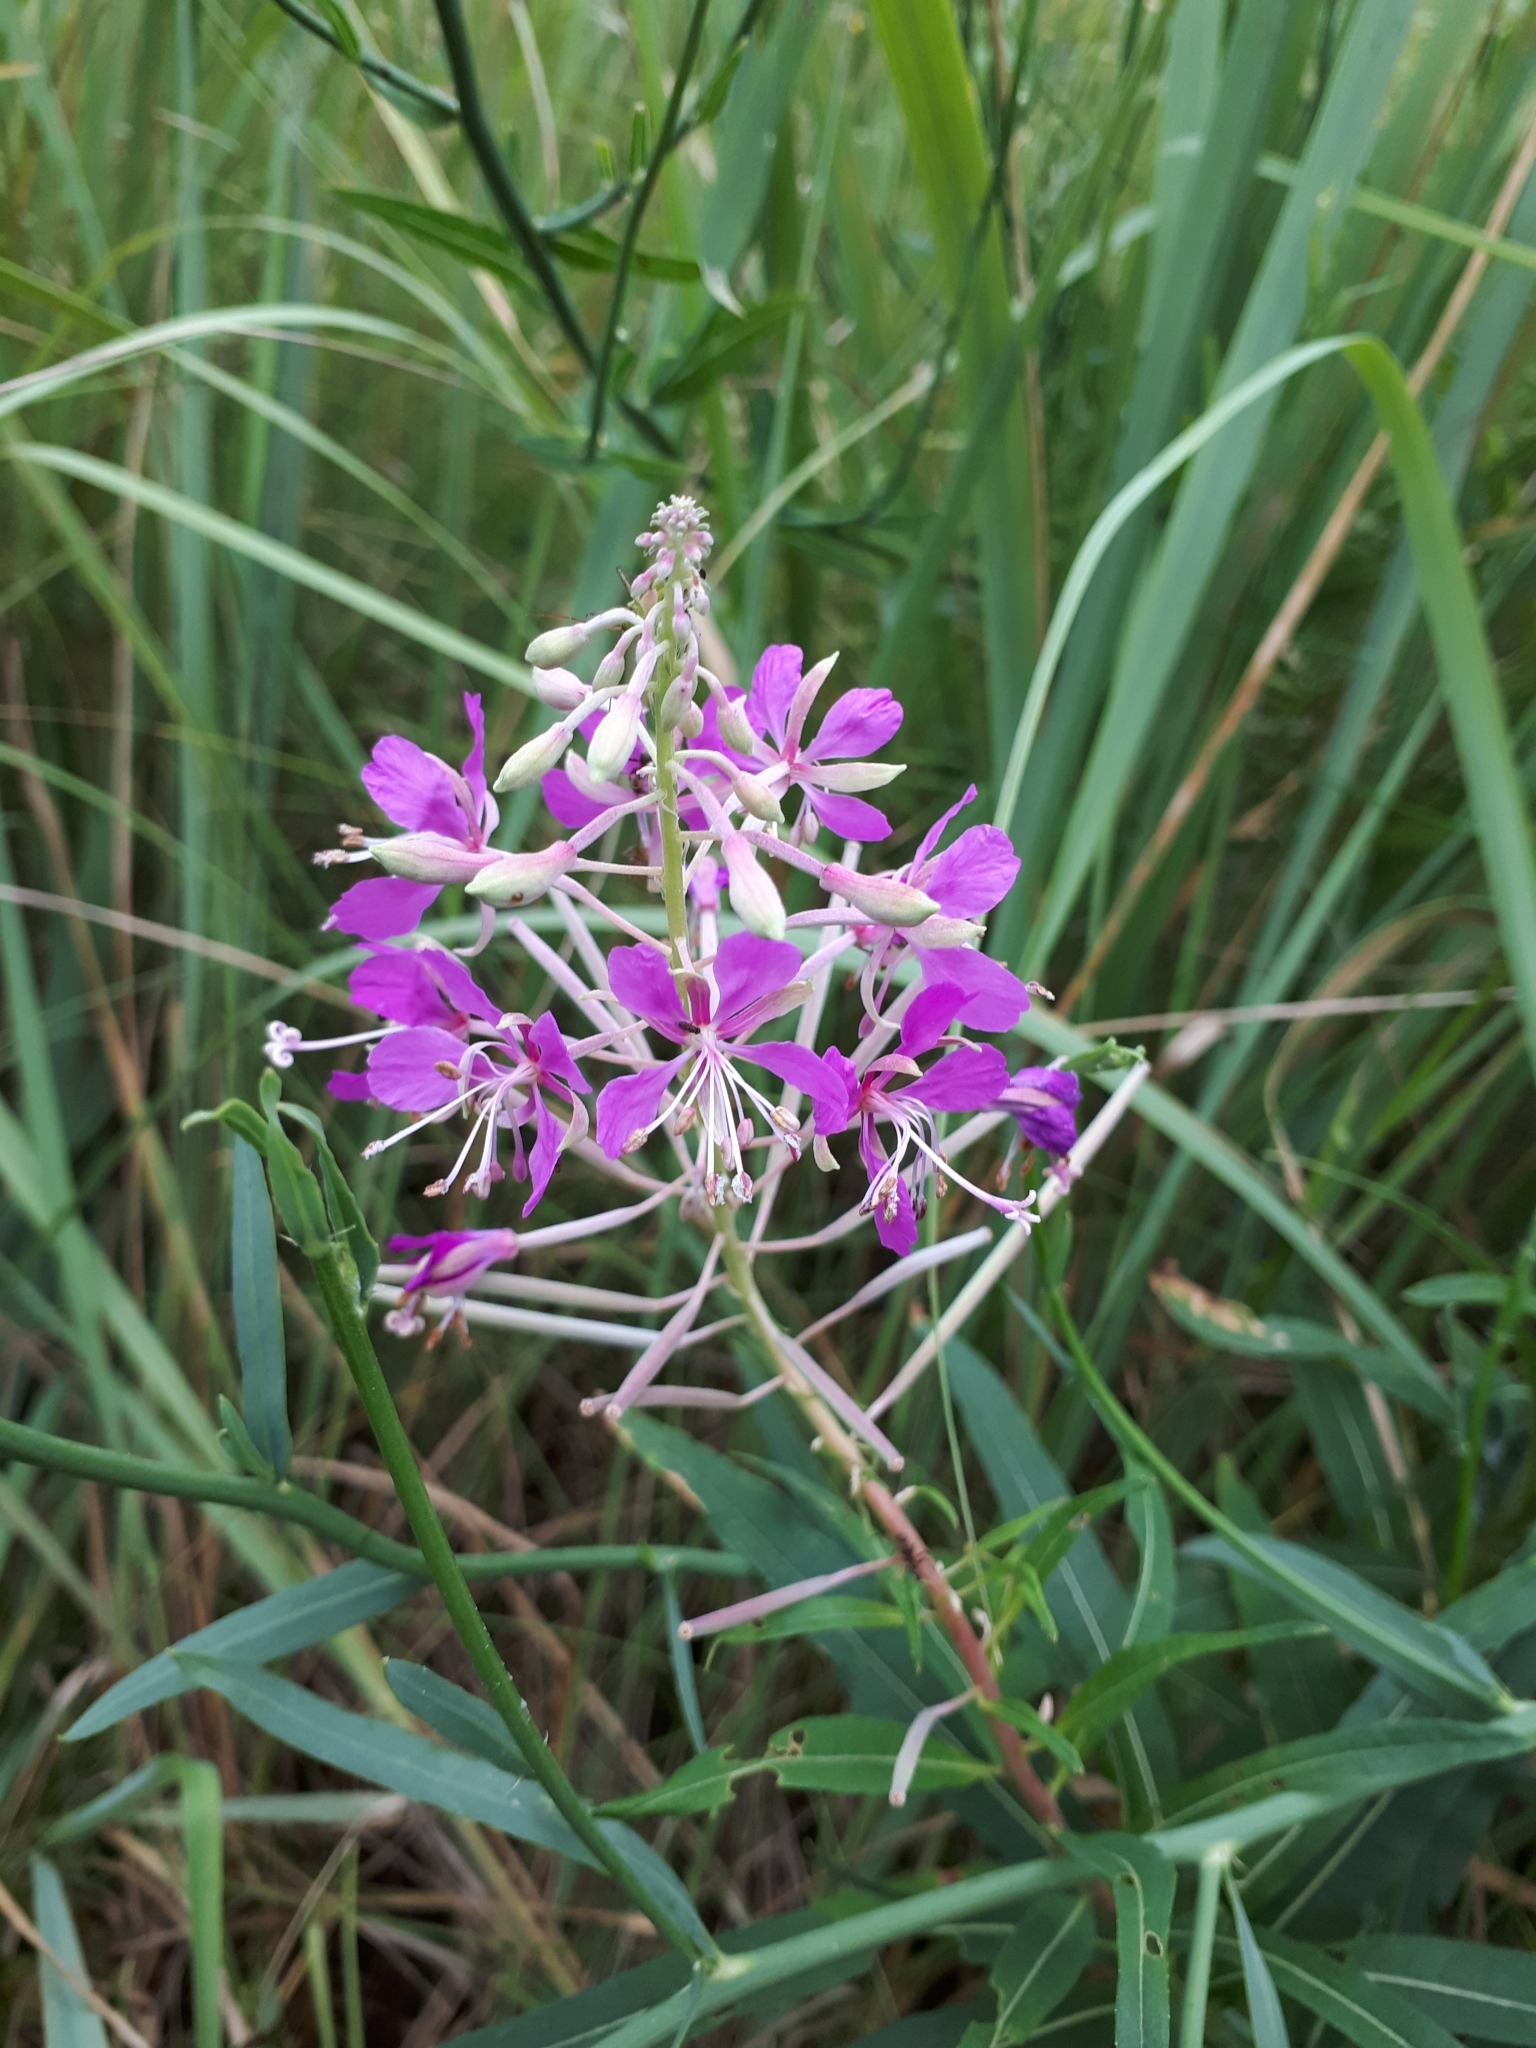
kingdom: Plantae
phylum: Tracheophyta
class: Magnoliopsida
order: Myrtales
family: Onagraceae
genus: Chamaenerion
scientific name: Chamaenerion angustifolium
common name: Fireweed
